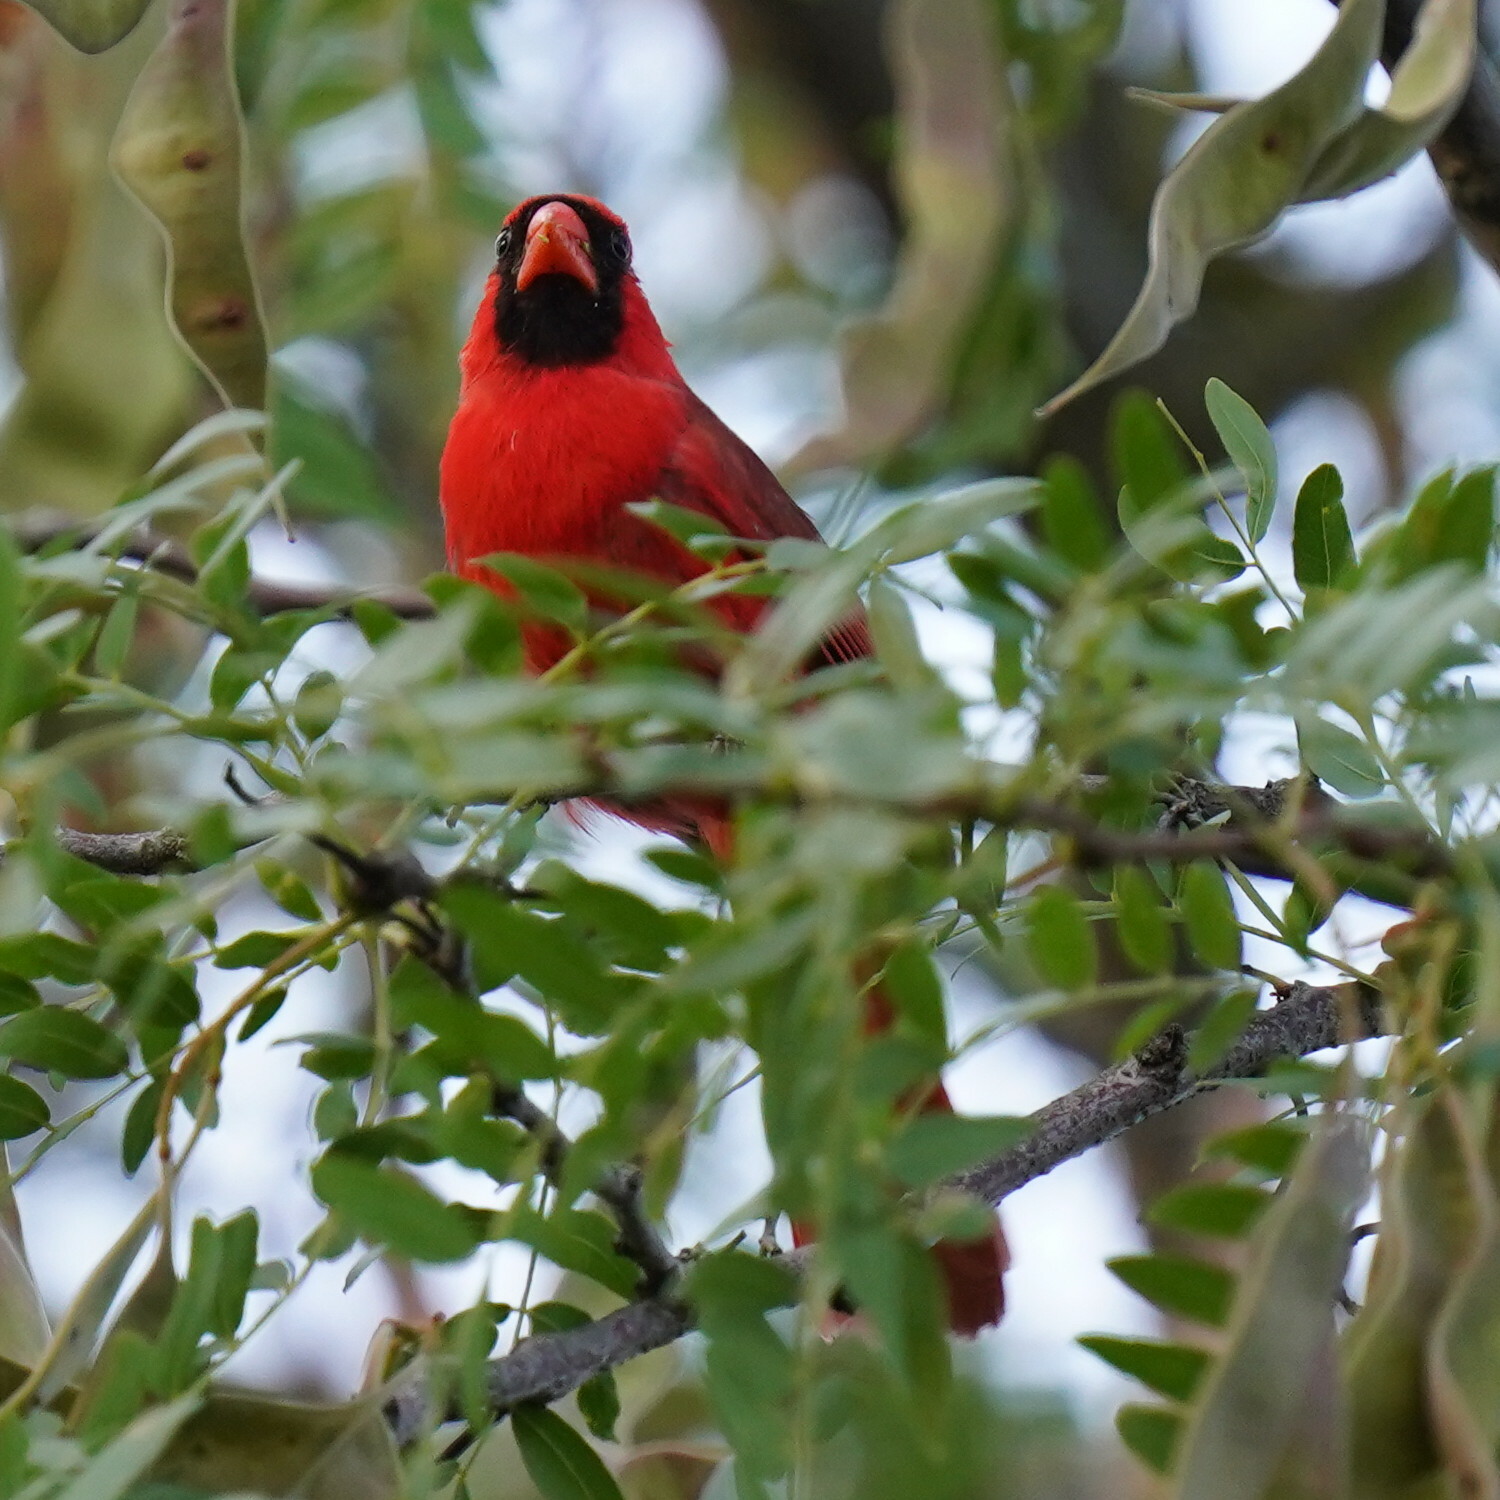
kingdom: Animalia
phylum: Chordata
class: Aves
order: Passeriformes
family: Cardinalidae
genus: Cardinalis
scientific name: Cardinalis cardinalis
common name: Northern cardinal
